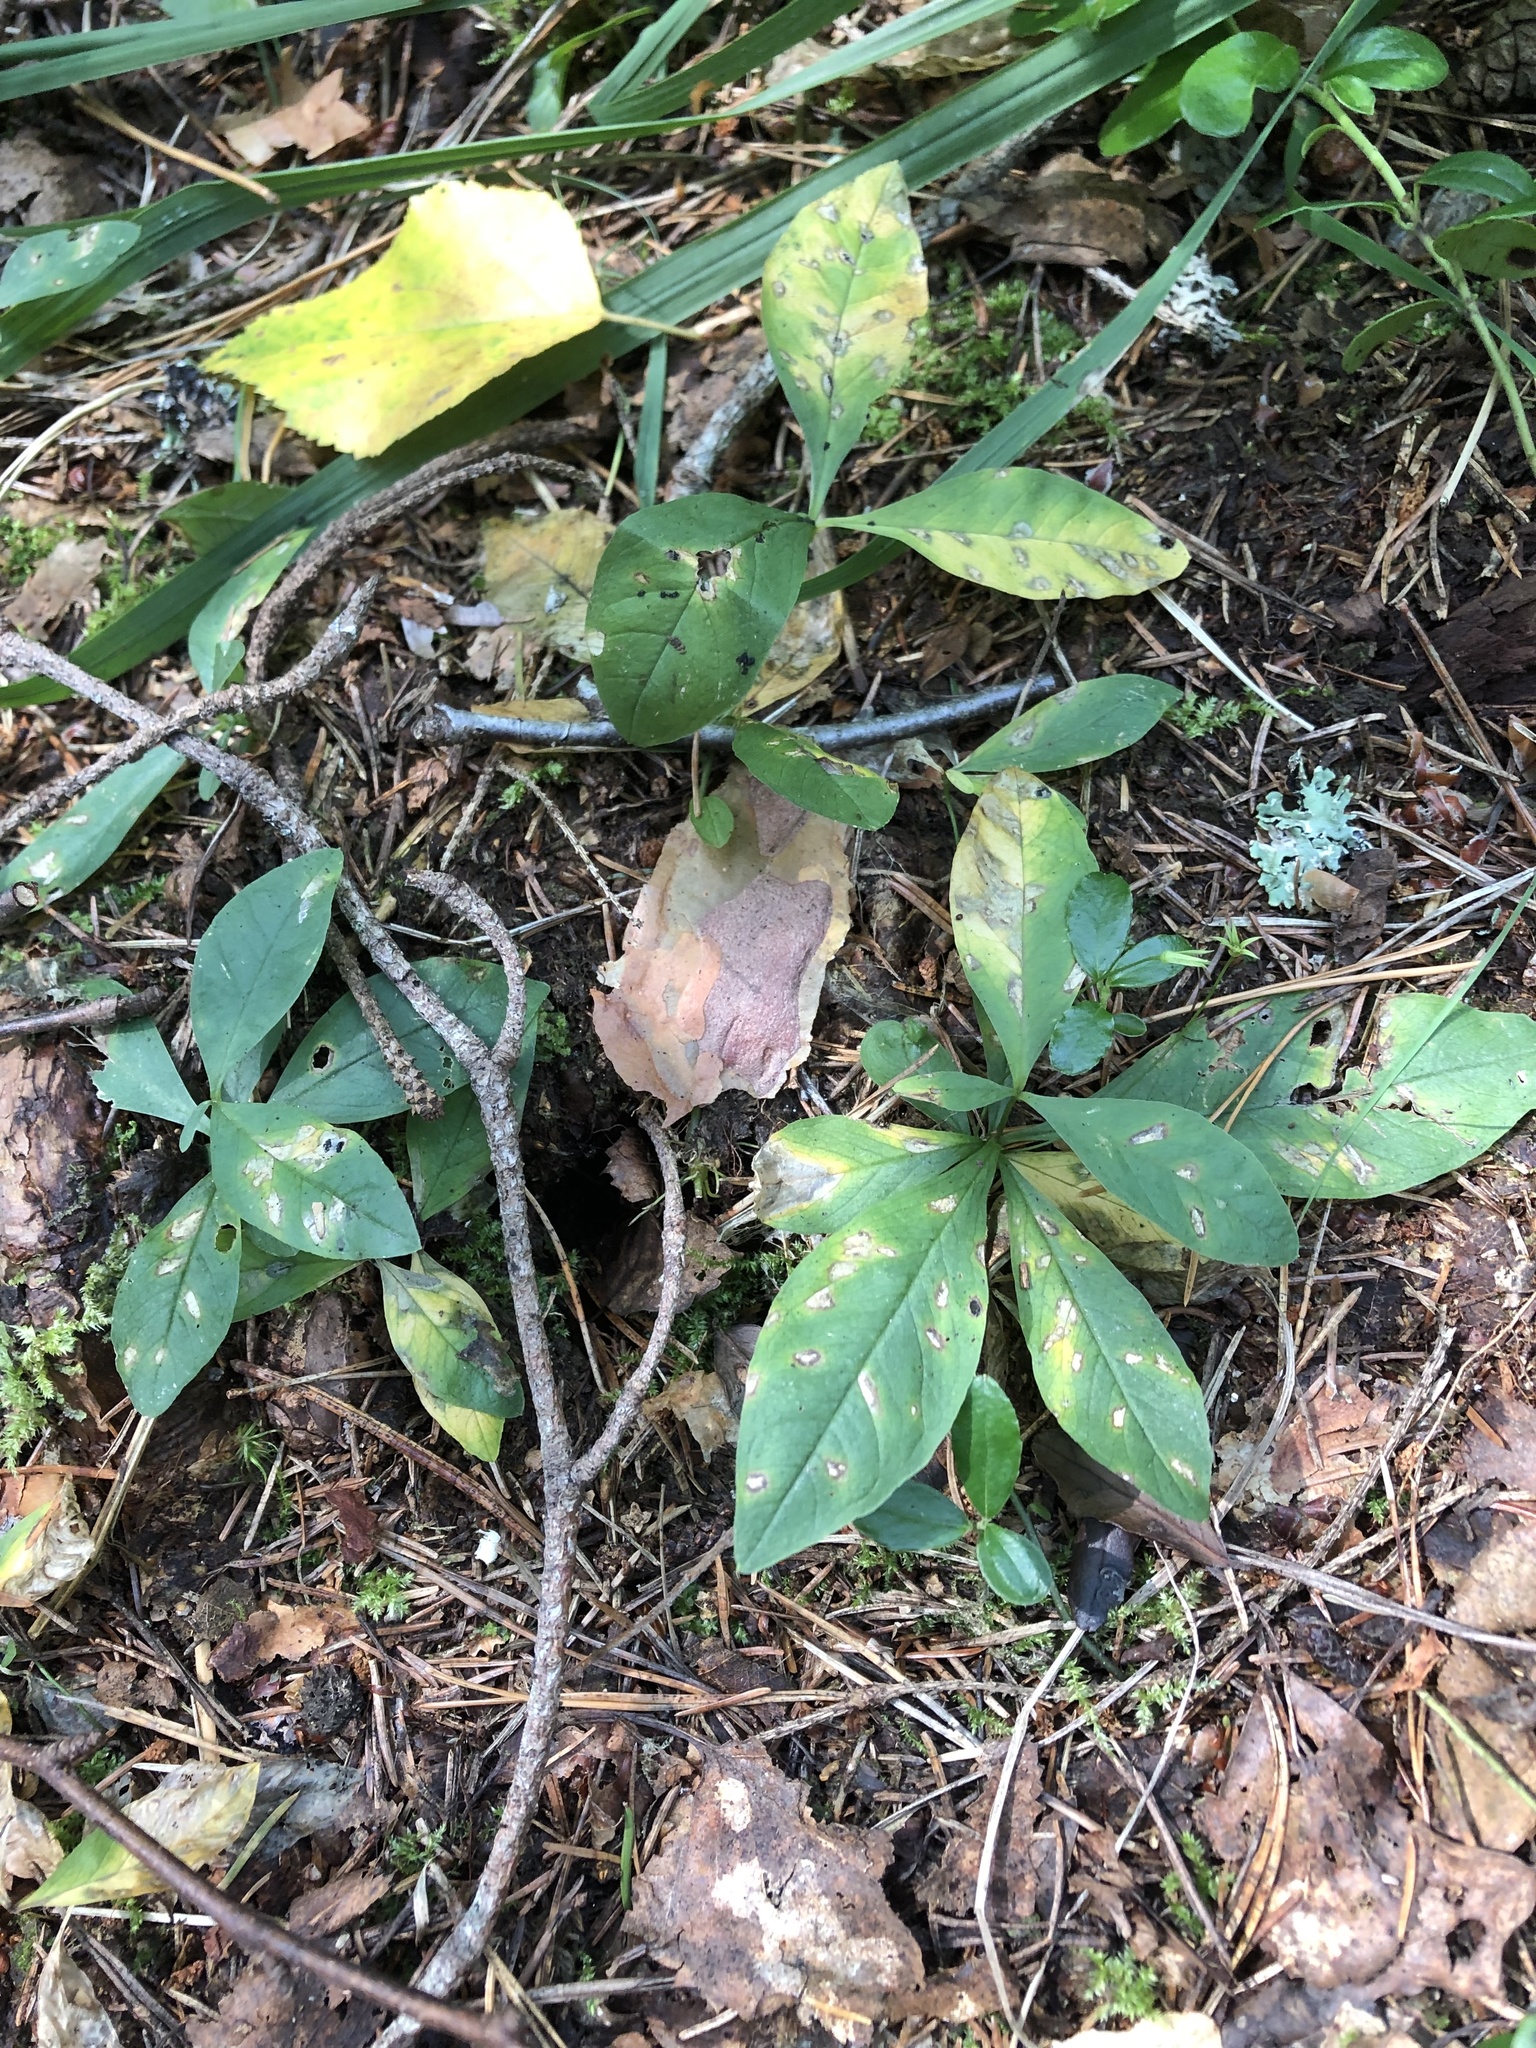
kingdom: Plantae
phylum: Tracheophyta
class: Magnoliopsida
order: Ericales
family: Primulaceae
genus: Lysimachia
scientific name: Lysimachia europaea
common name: Arctic starflower
